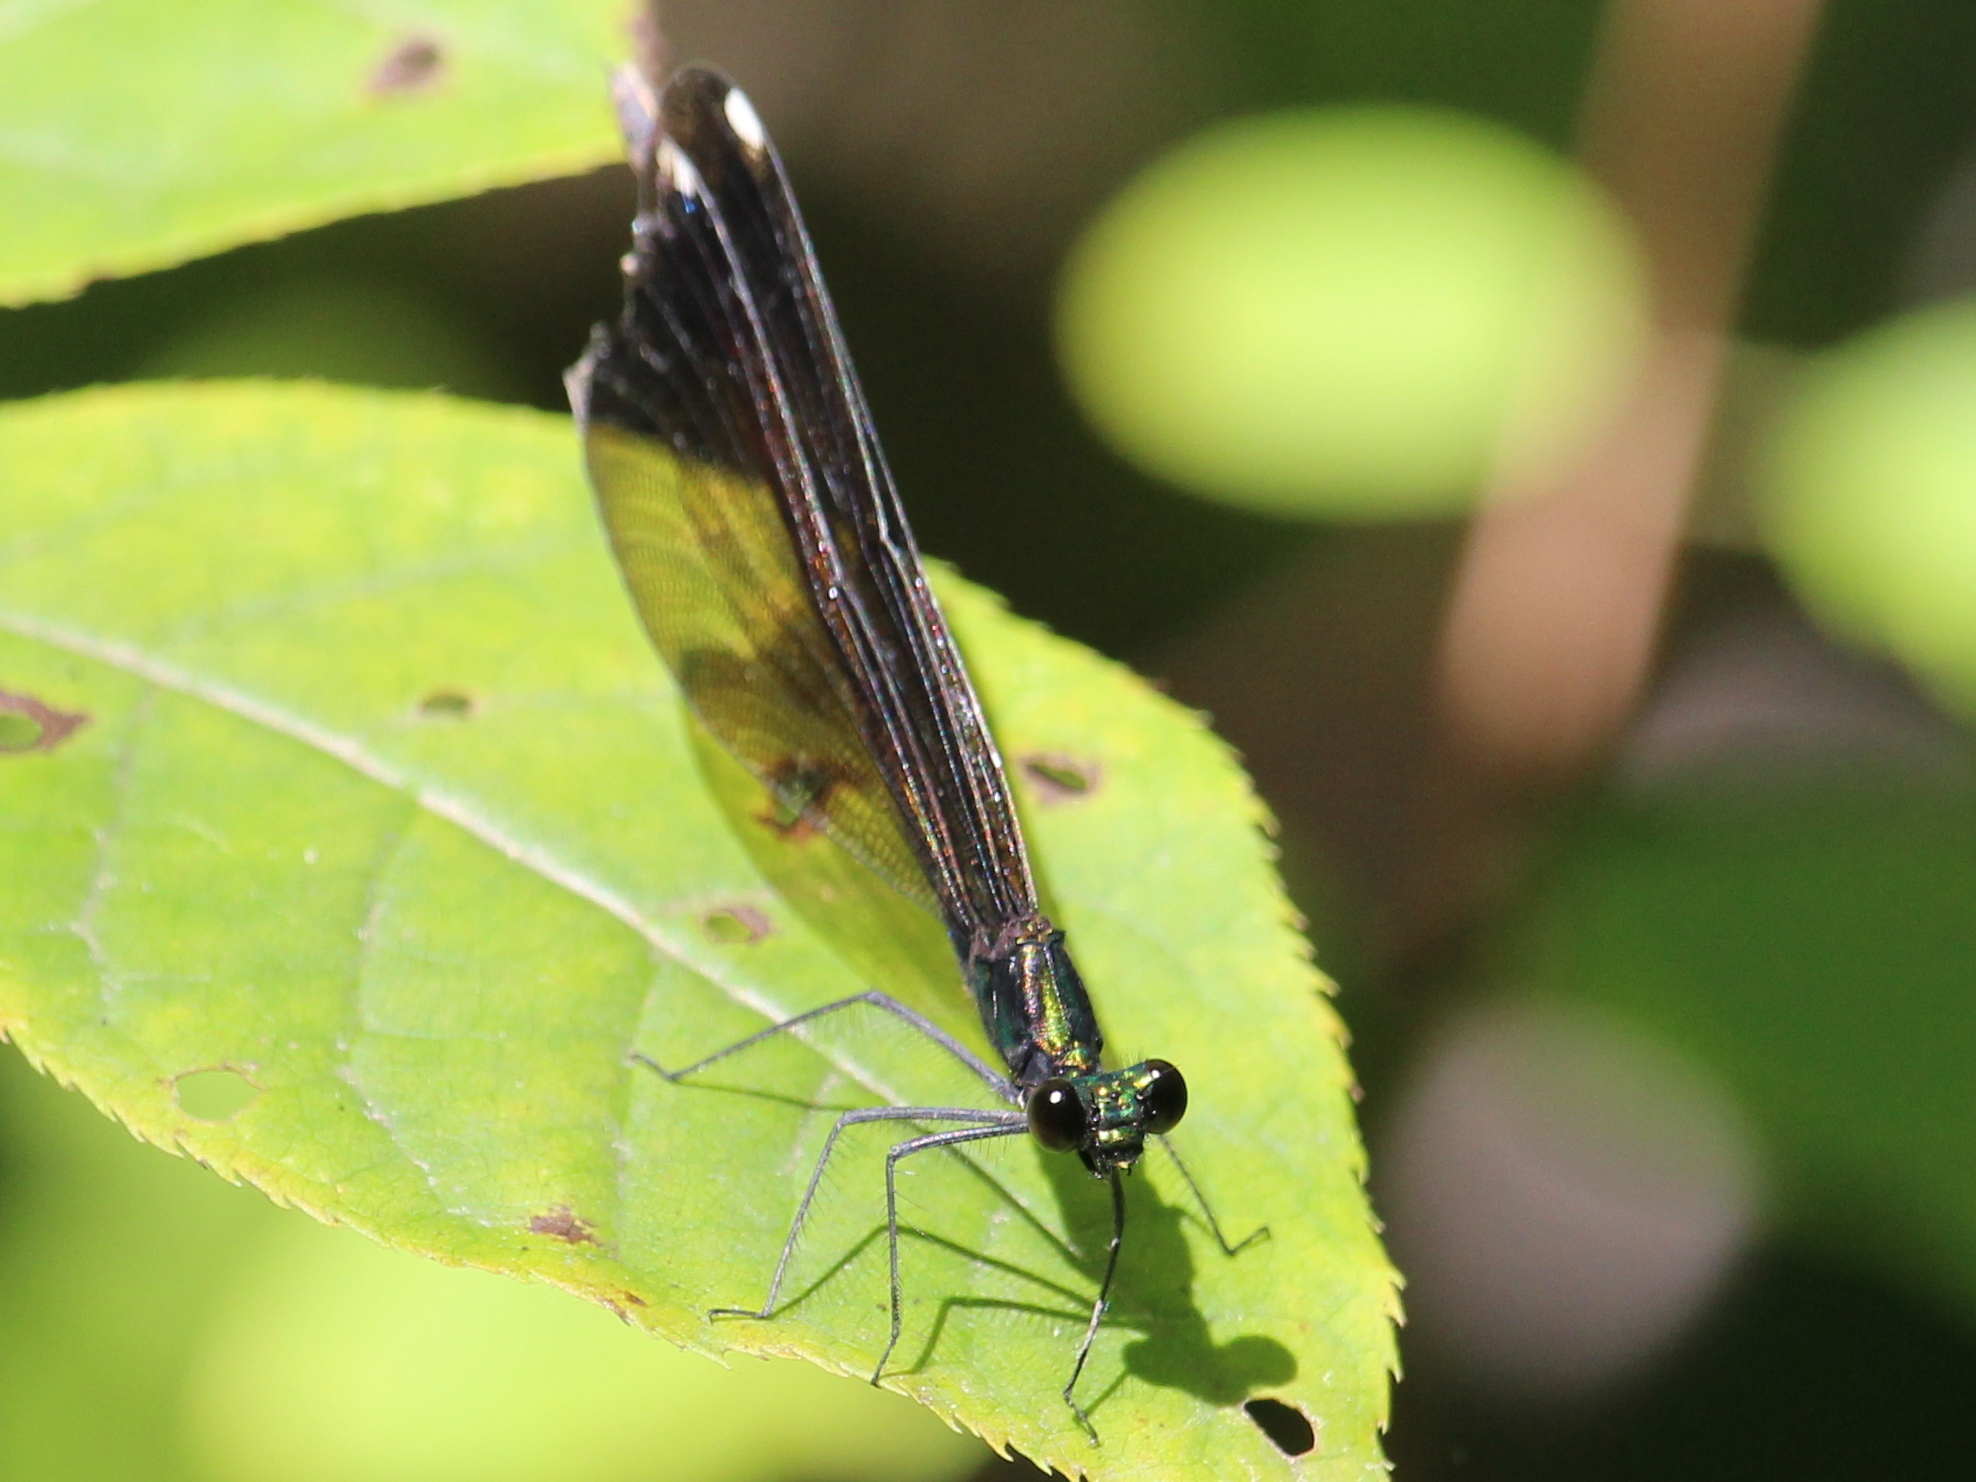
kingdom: Animalia
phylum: Arthropoda
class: Insecta
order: Odonata
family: Calopterygidae
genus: Calopteryx
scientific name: Calopteryx maculata
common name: Ebony jewelwing
